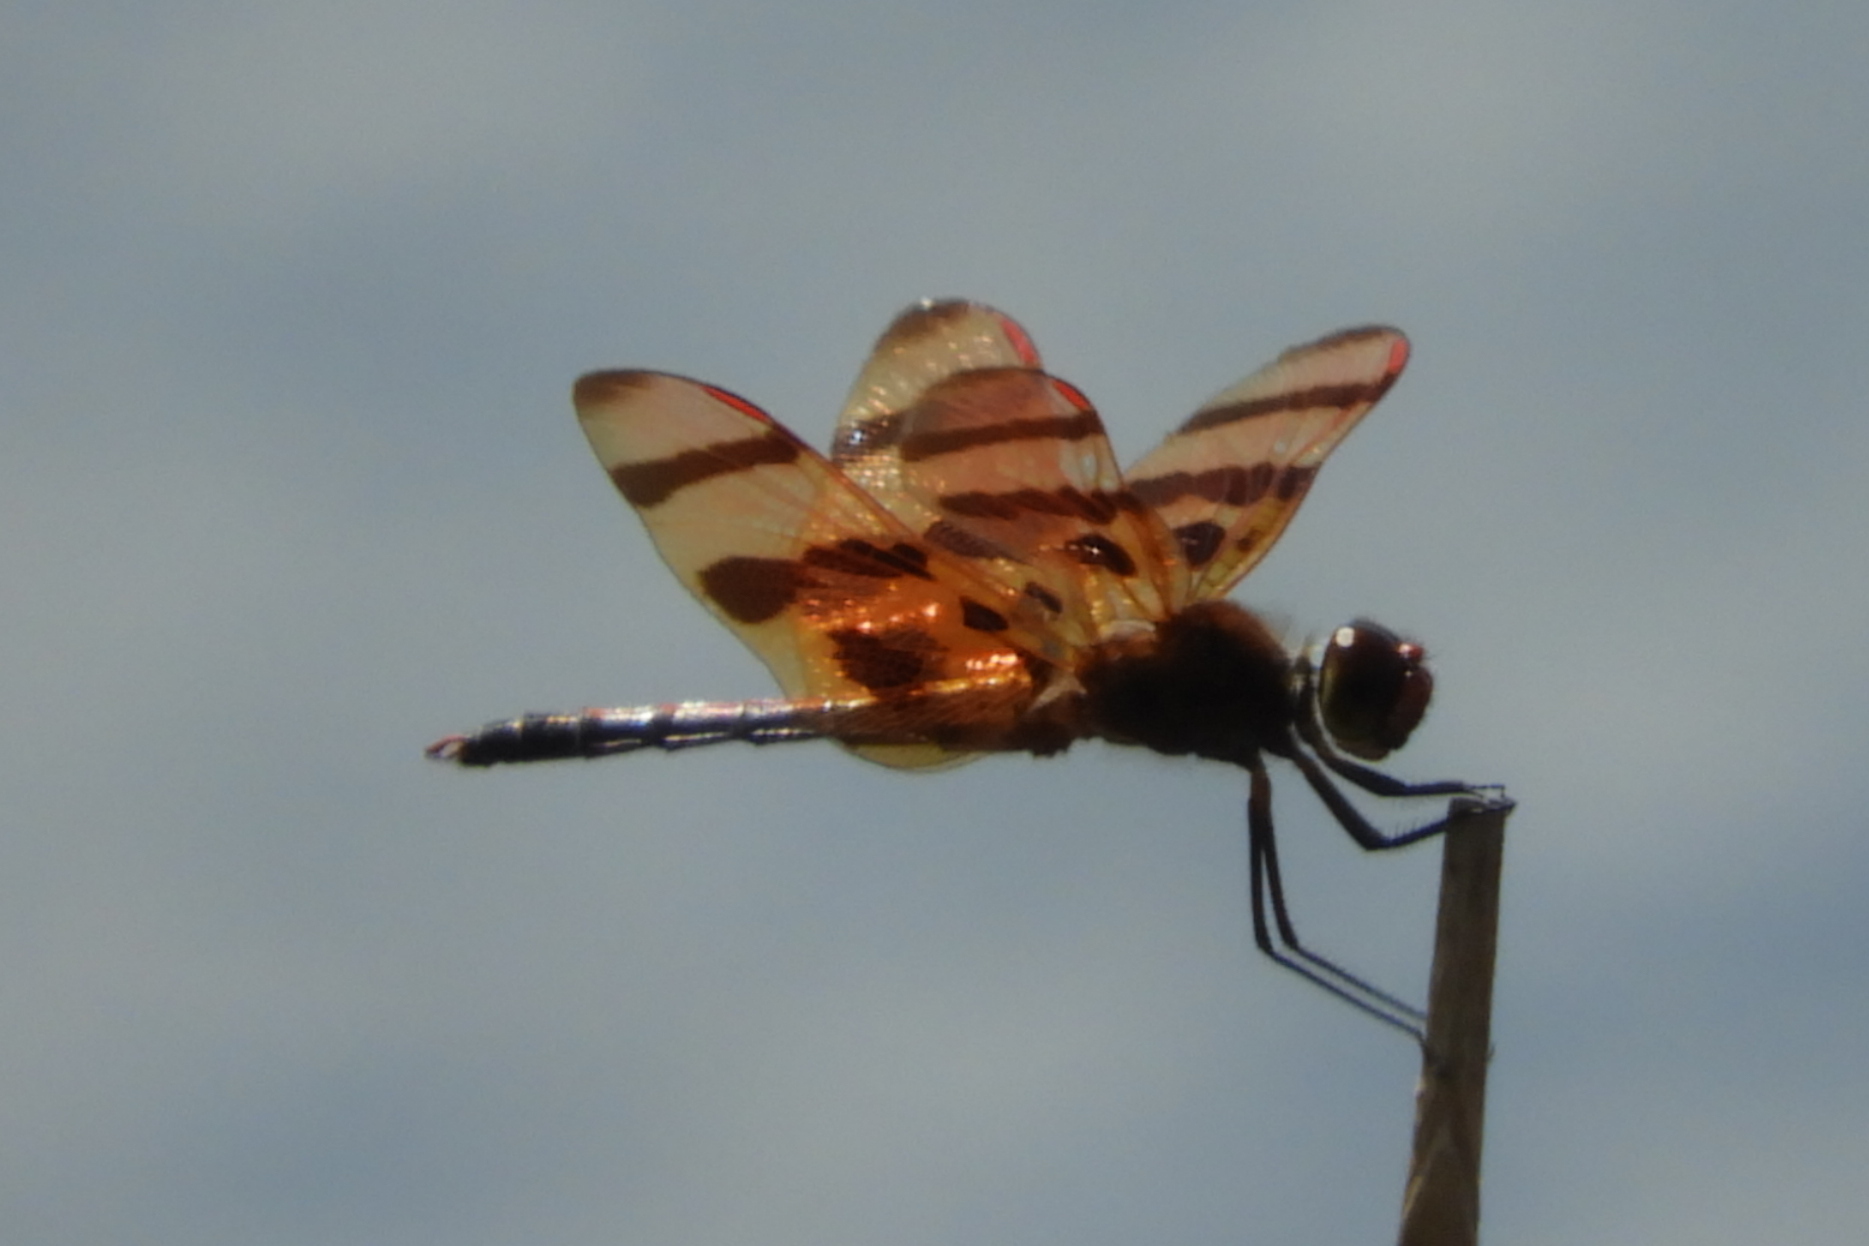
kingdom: Animalia
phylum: Arthropoda
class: Insecta
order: Odonata
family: Libellulidae
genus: Celithemis
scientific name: Celithemis eponina
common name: Halloween pennant
